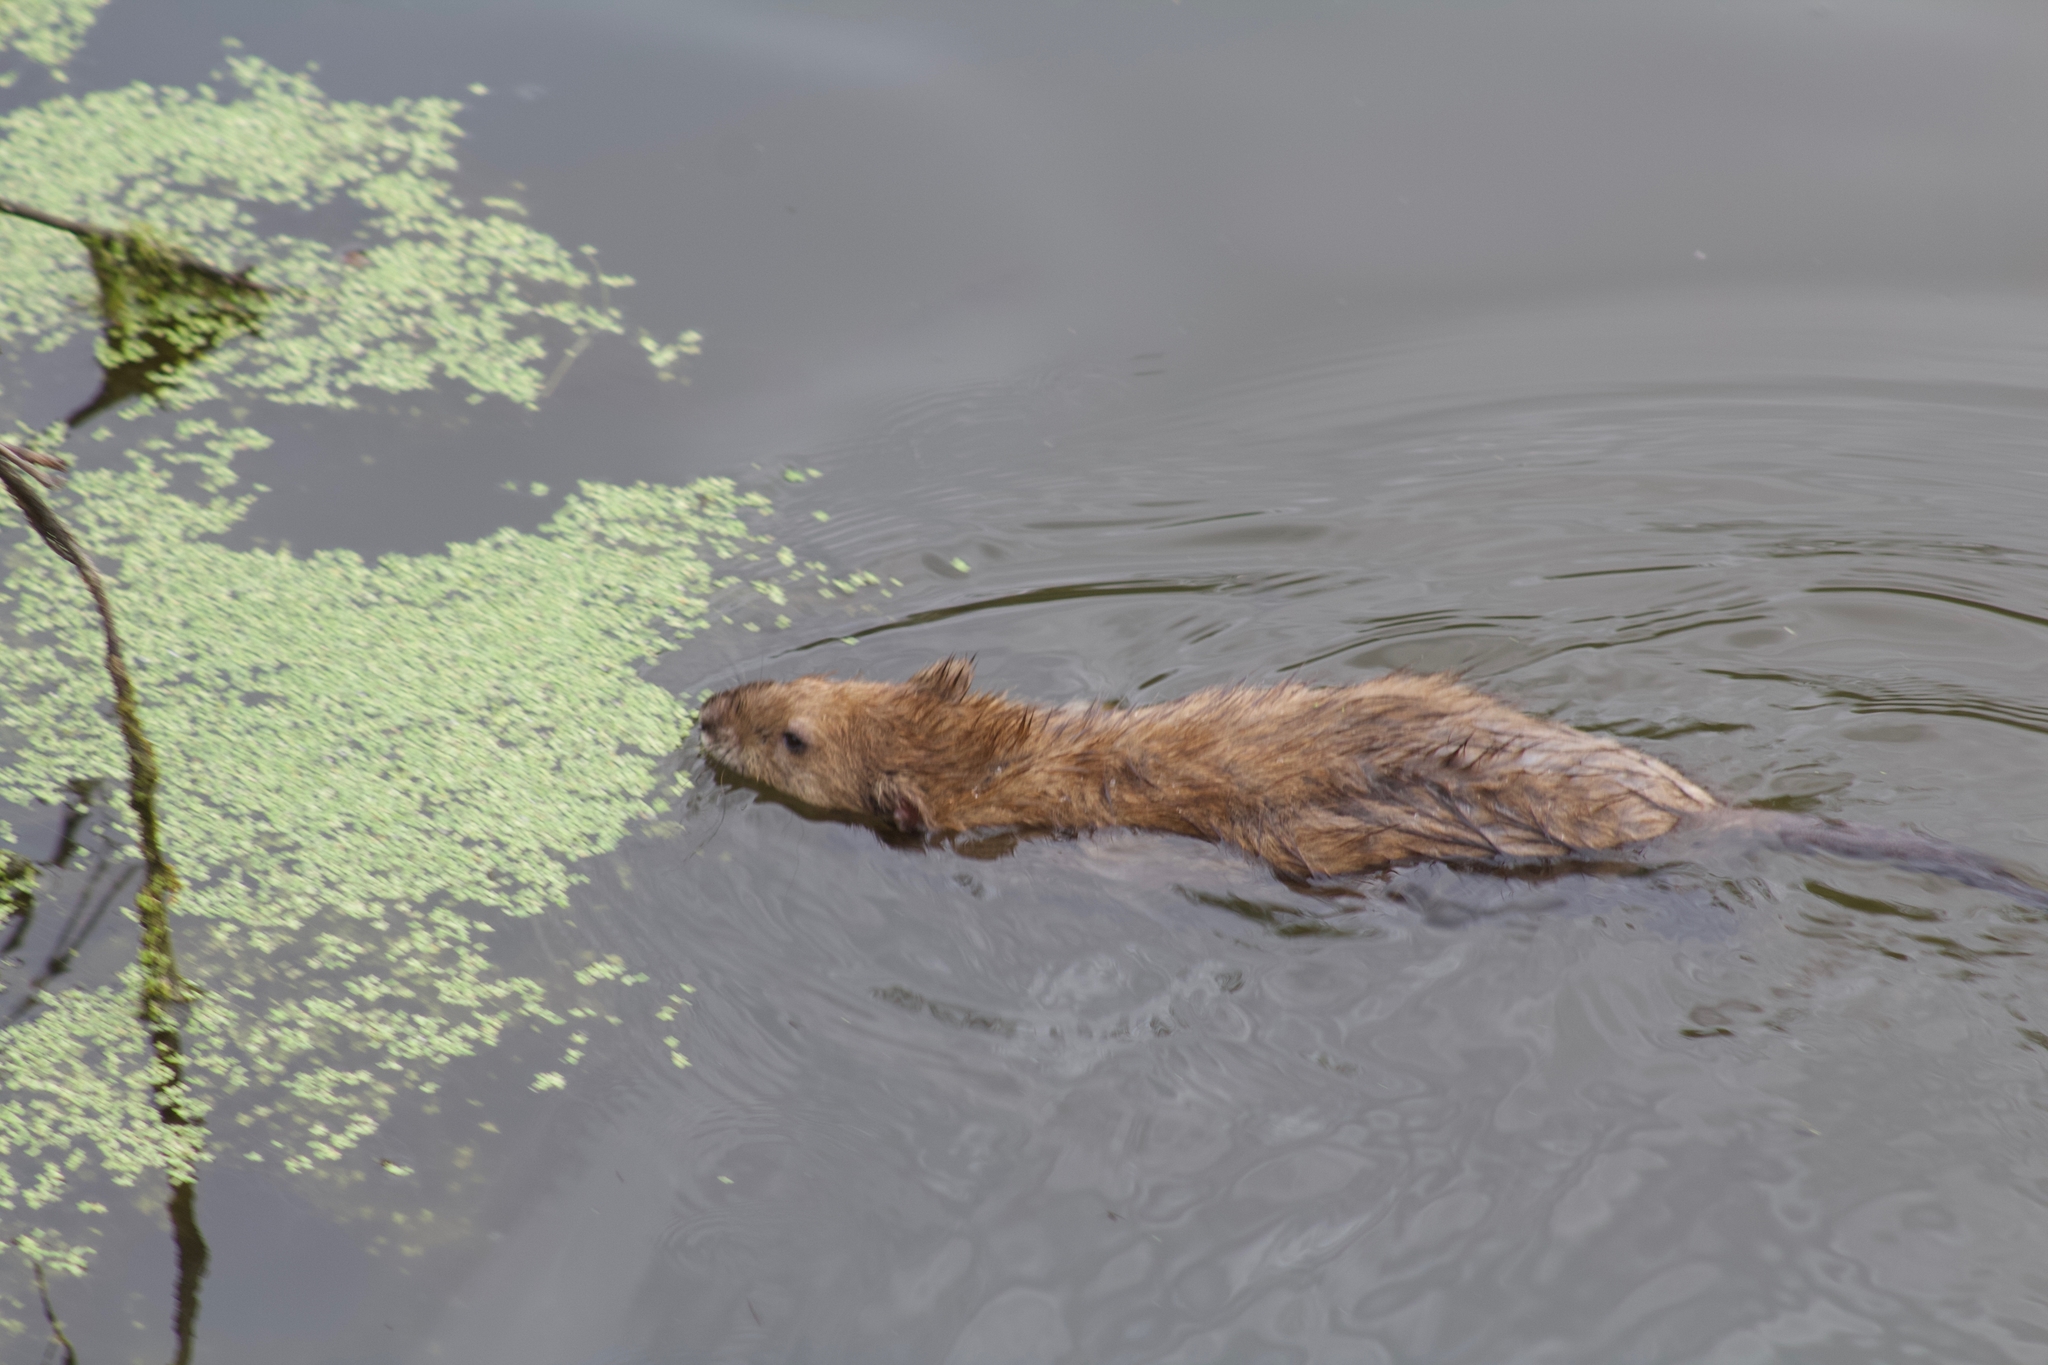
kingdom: Animalia
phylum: Chordata
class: Mammalia
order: Rodentia
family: Cricetidae
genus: Ondatra
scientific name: Ondatra zibethicus
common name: Muskrat
